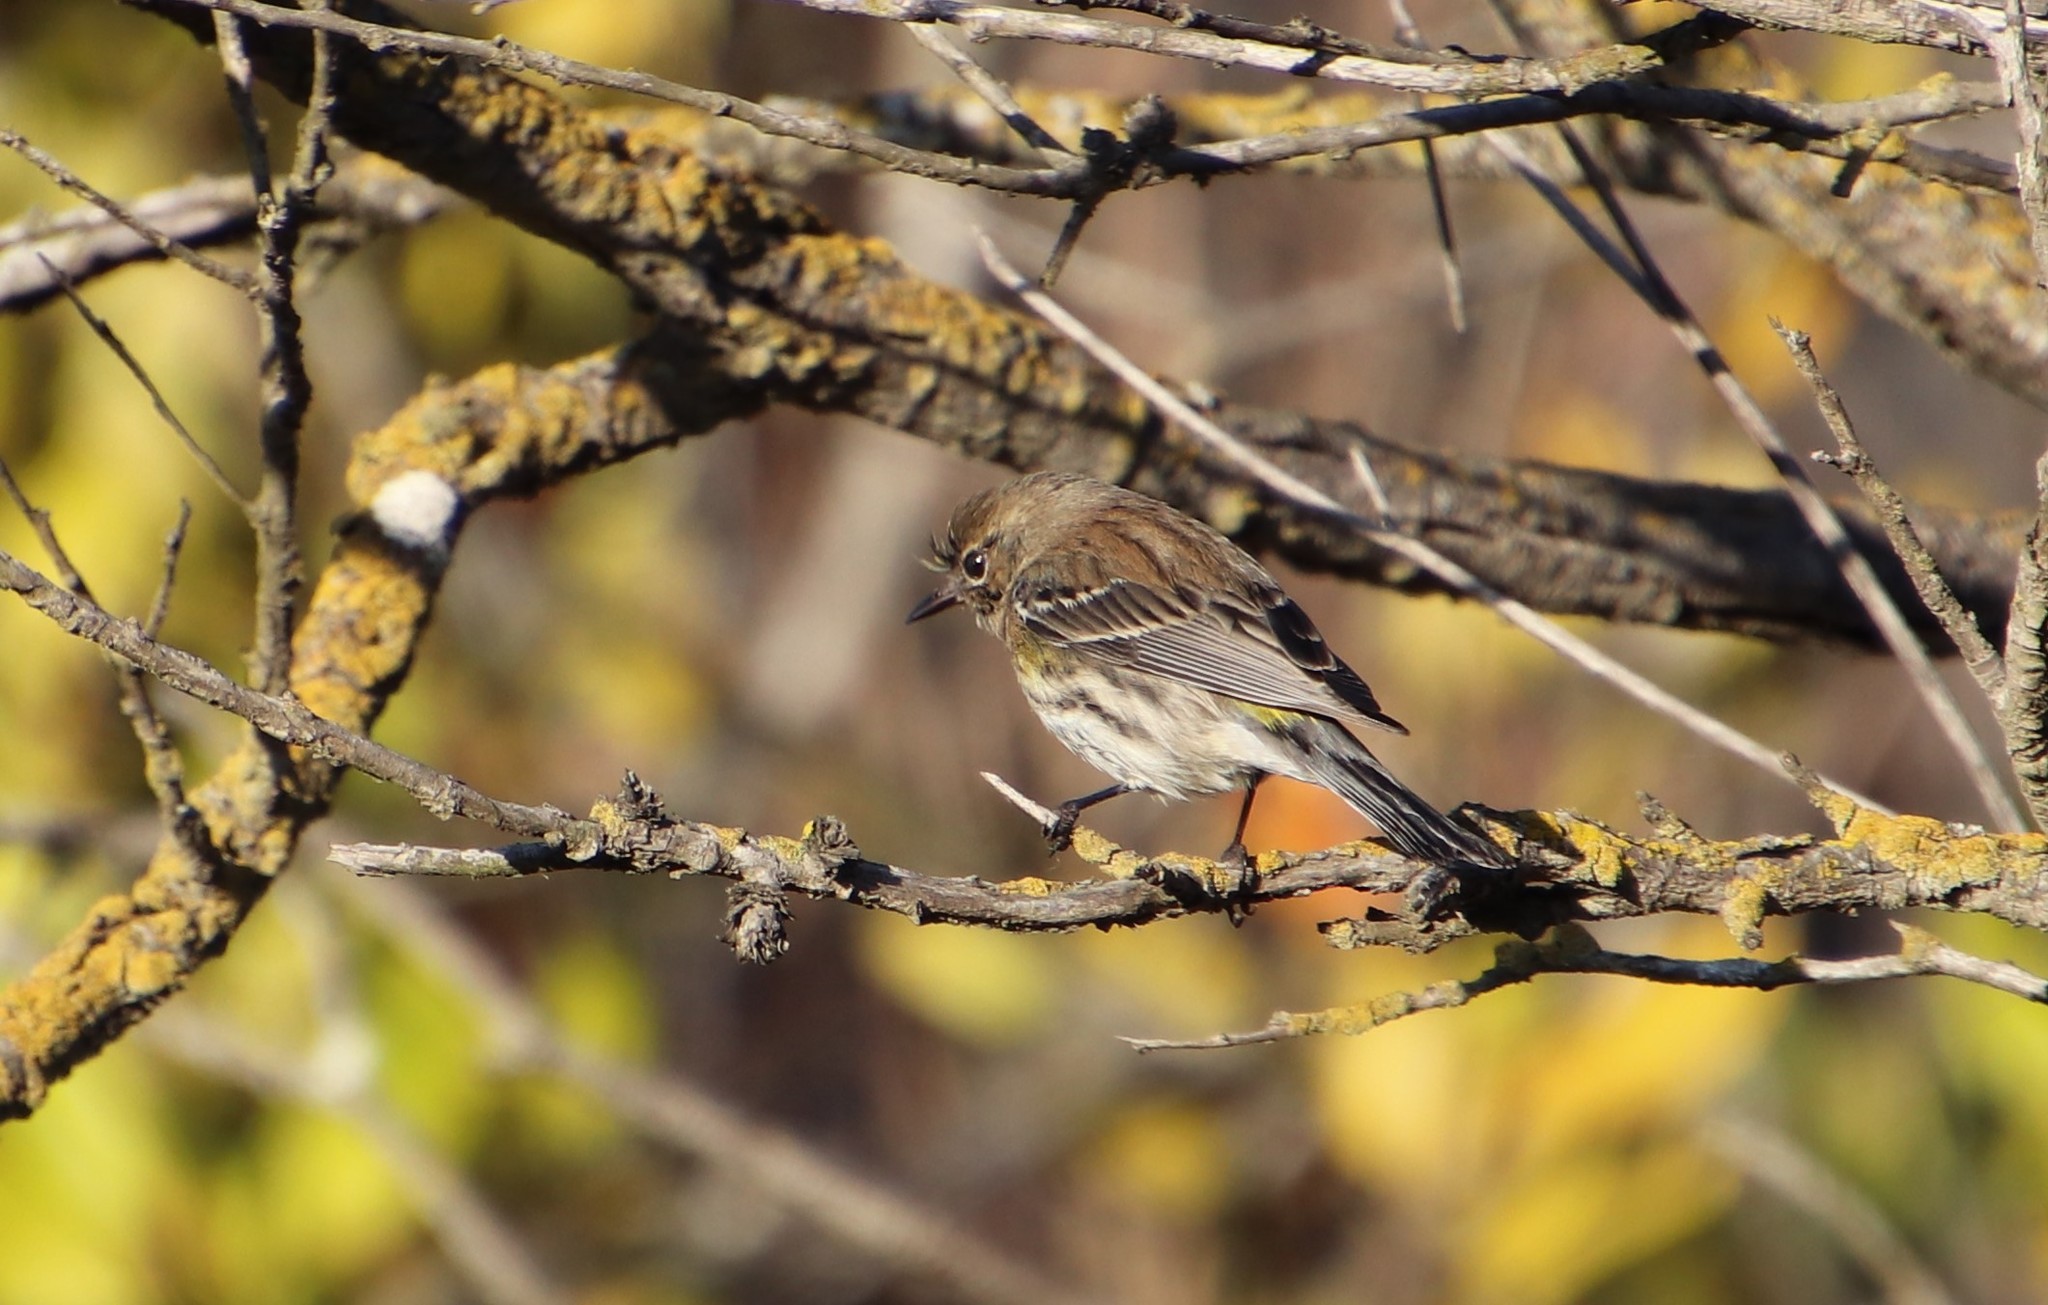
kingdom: Animalia
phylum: Chordata
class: Aves
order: Passeriformes
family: Parulidae
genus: Setophaga
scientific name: Setophaga coronata
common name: Myrtle warbler
